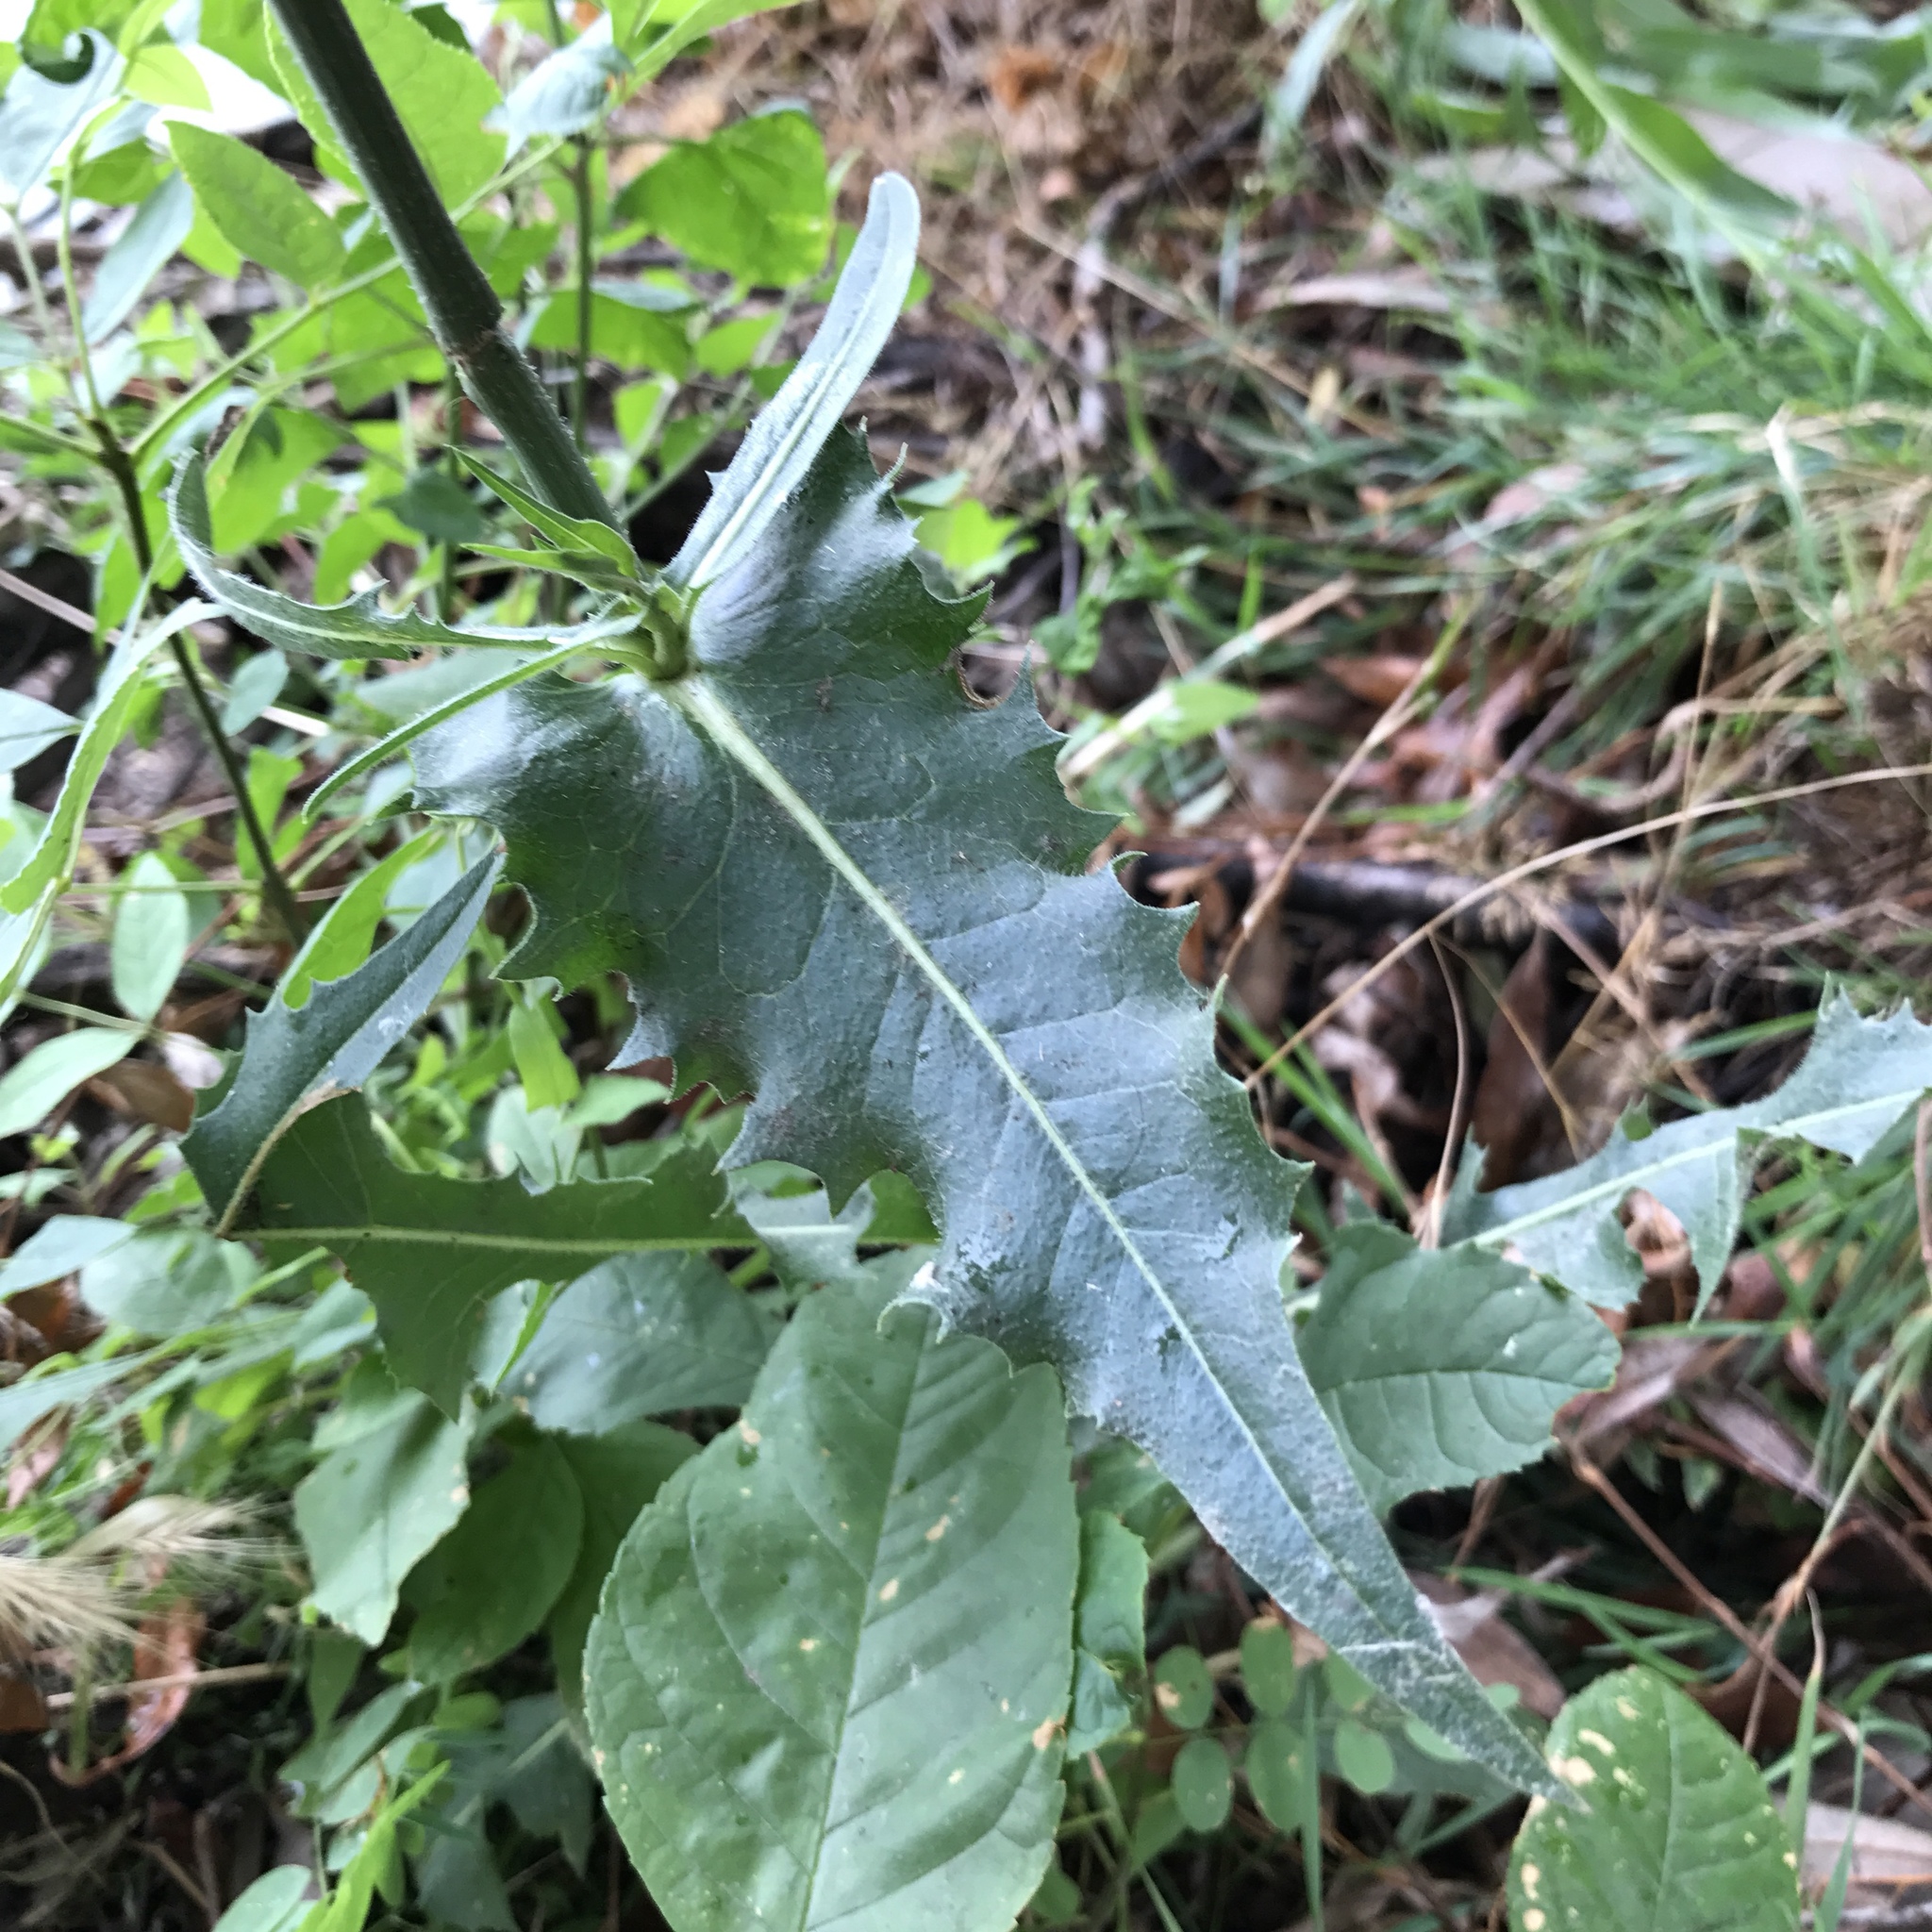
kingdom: Plantae
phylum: Tracheophyta
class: Magnoliopsida
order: Asterales
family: Asteraceae
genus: Cichorium
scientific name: Cichorium intybus
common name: Chicory
